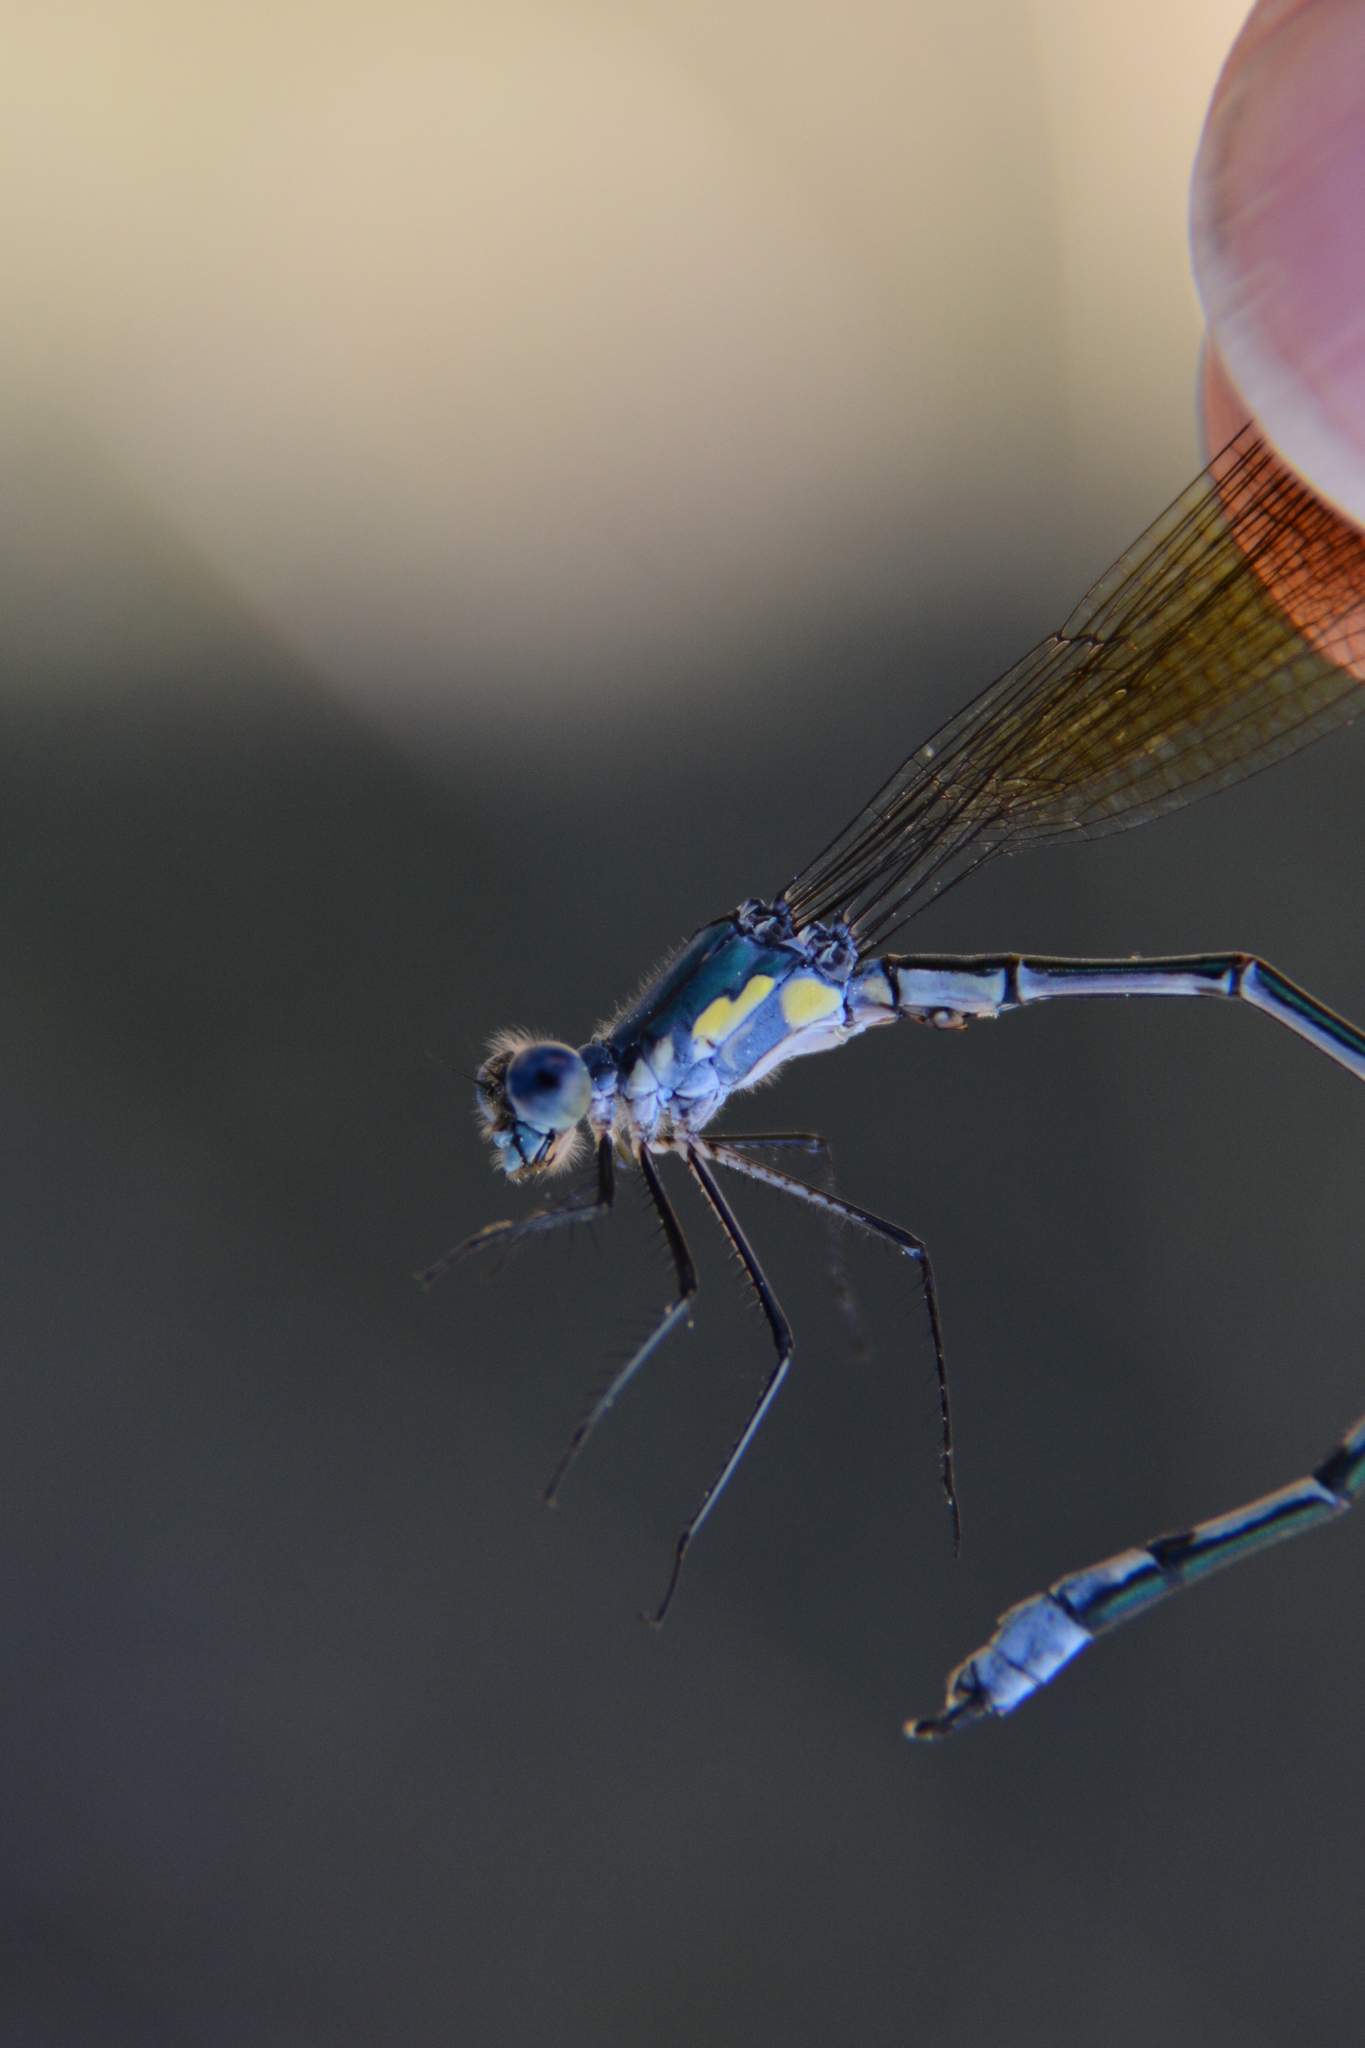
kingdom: Animalia
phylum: Arthropoda
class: Insecta
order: Odonata
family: Lestidae
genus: Lestes
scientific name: Lestes eurinus
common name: Amber-winged spreadwing
